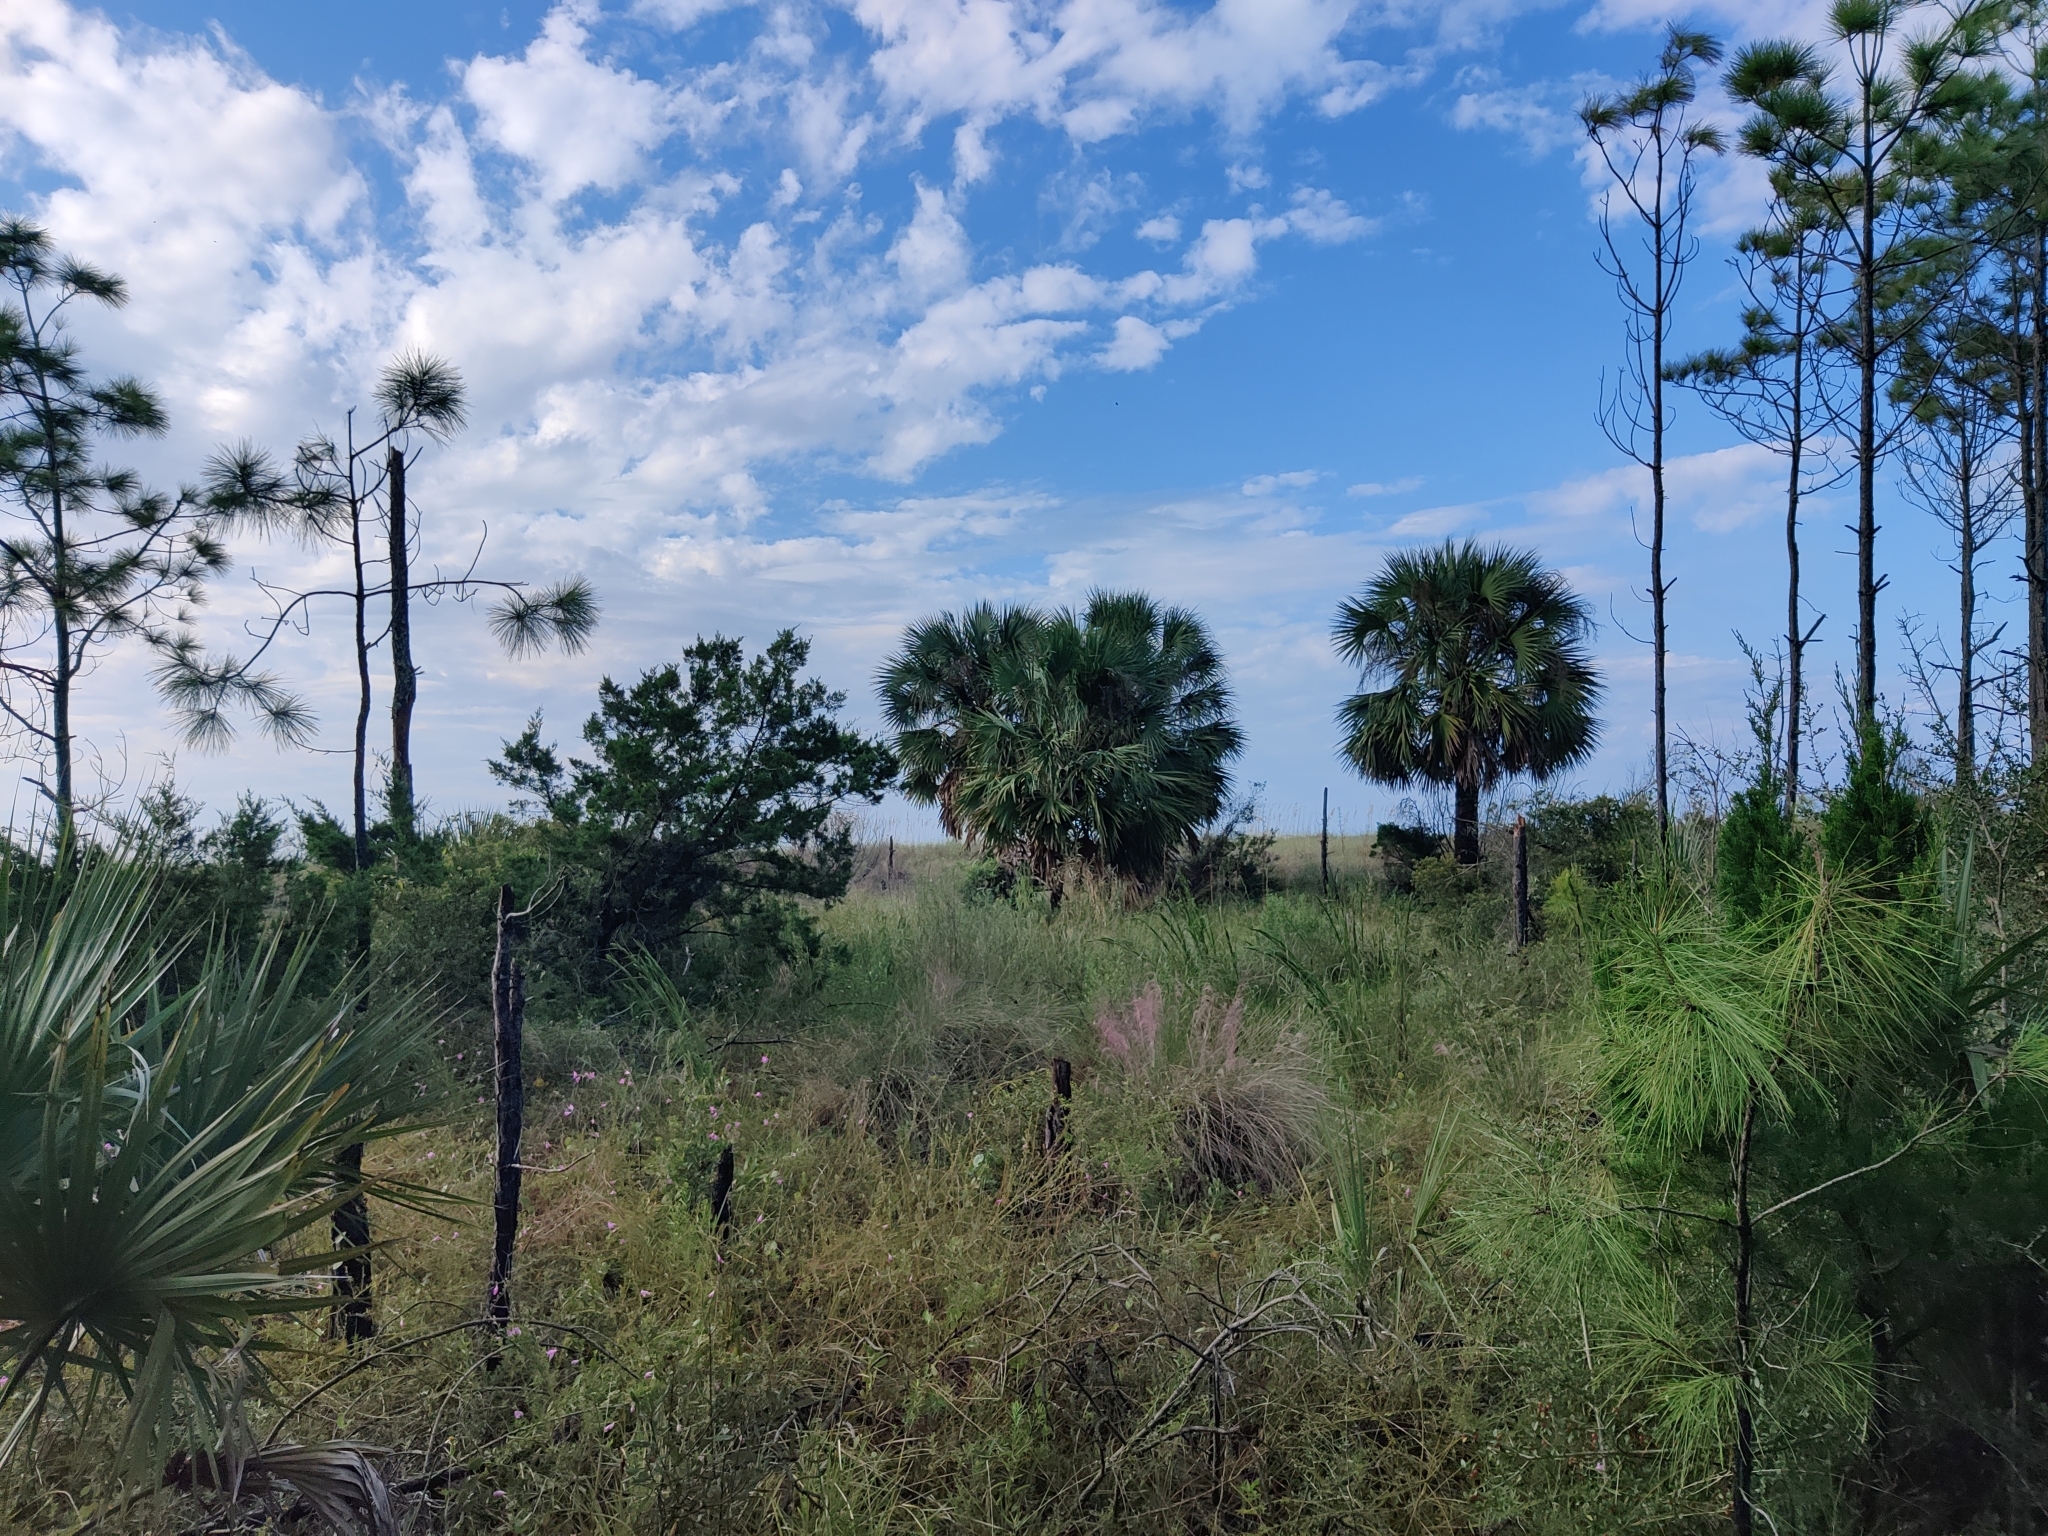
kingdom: Animalia
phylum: Chordata
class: Amphibia
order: Anura
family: Hylidae
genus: Osteopilus
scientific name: Osteopilus septentrionalis
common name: Cuban treefrog
